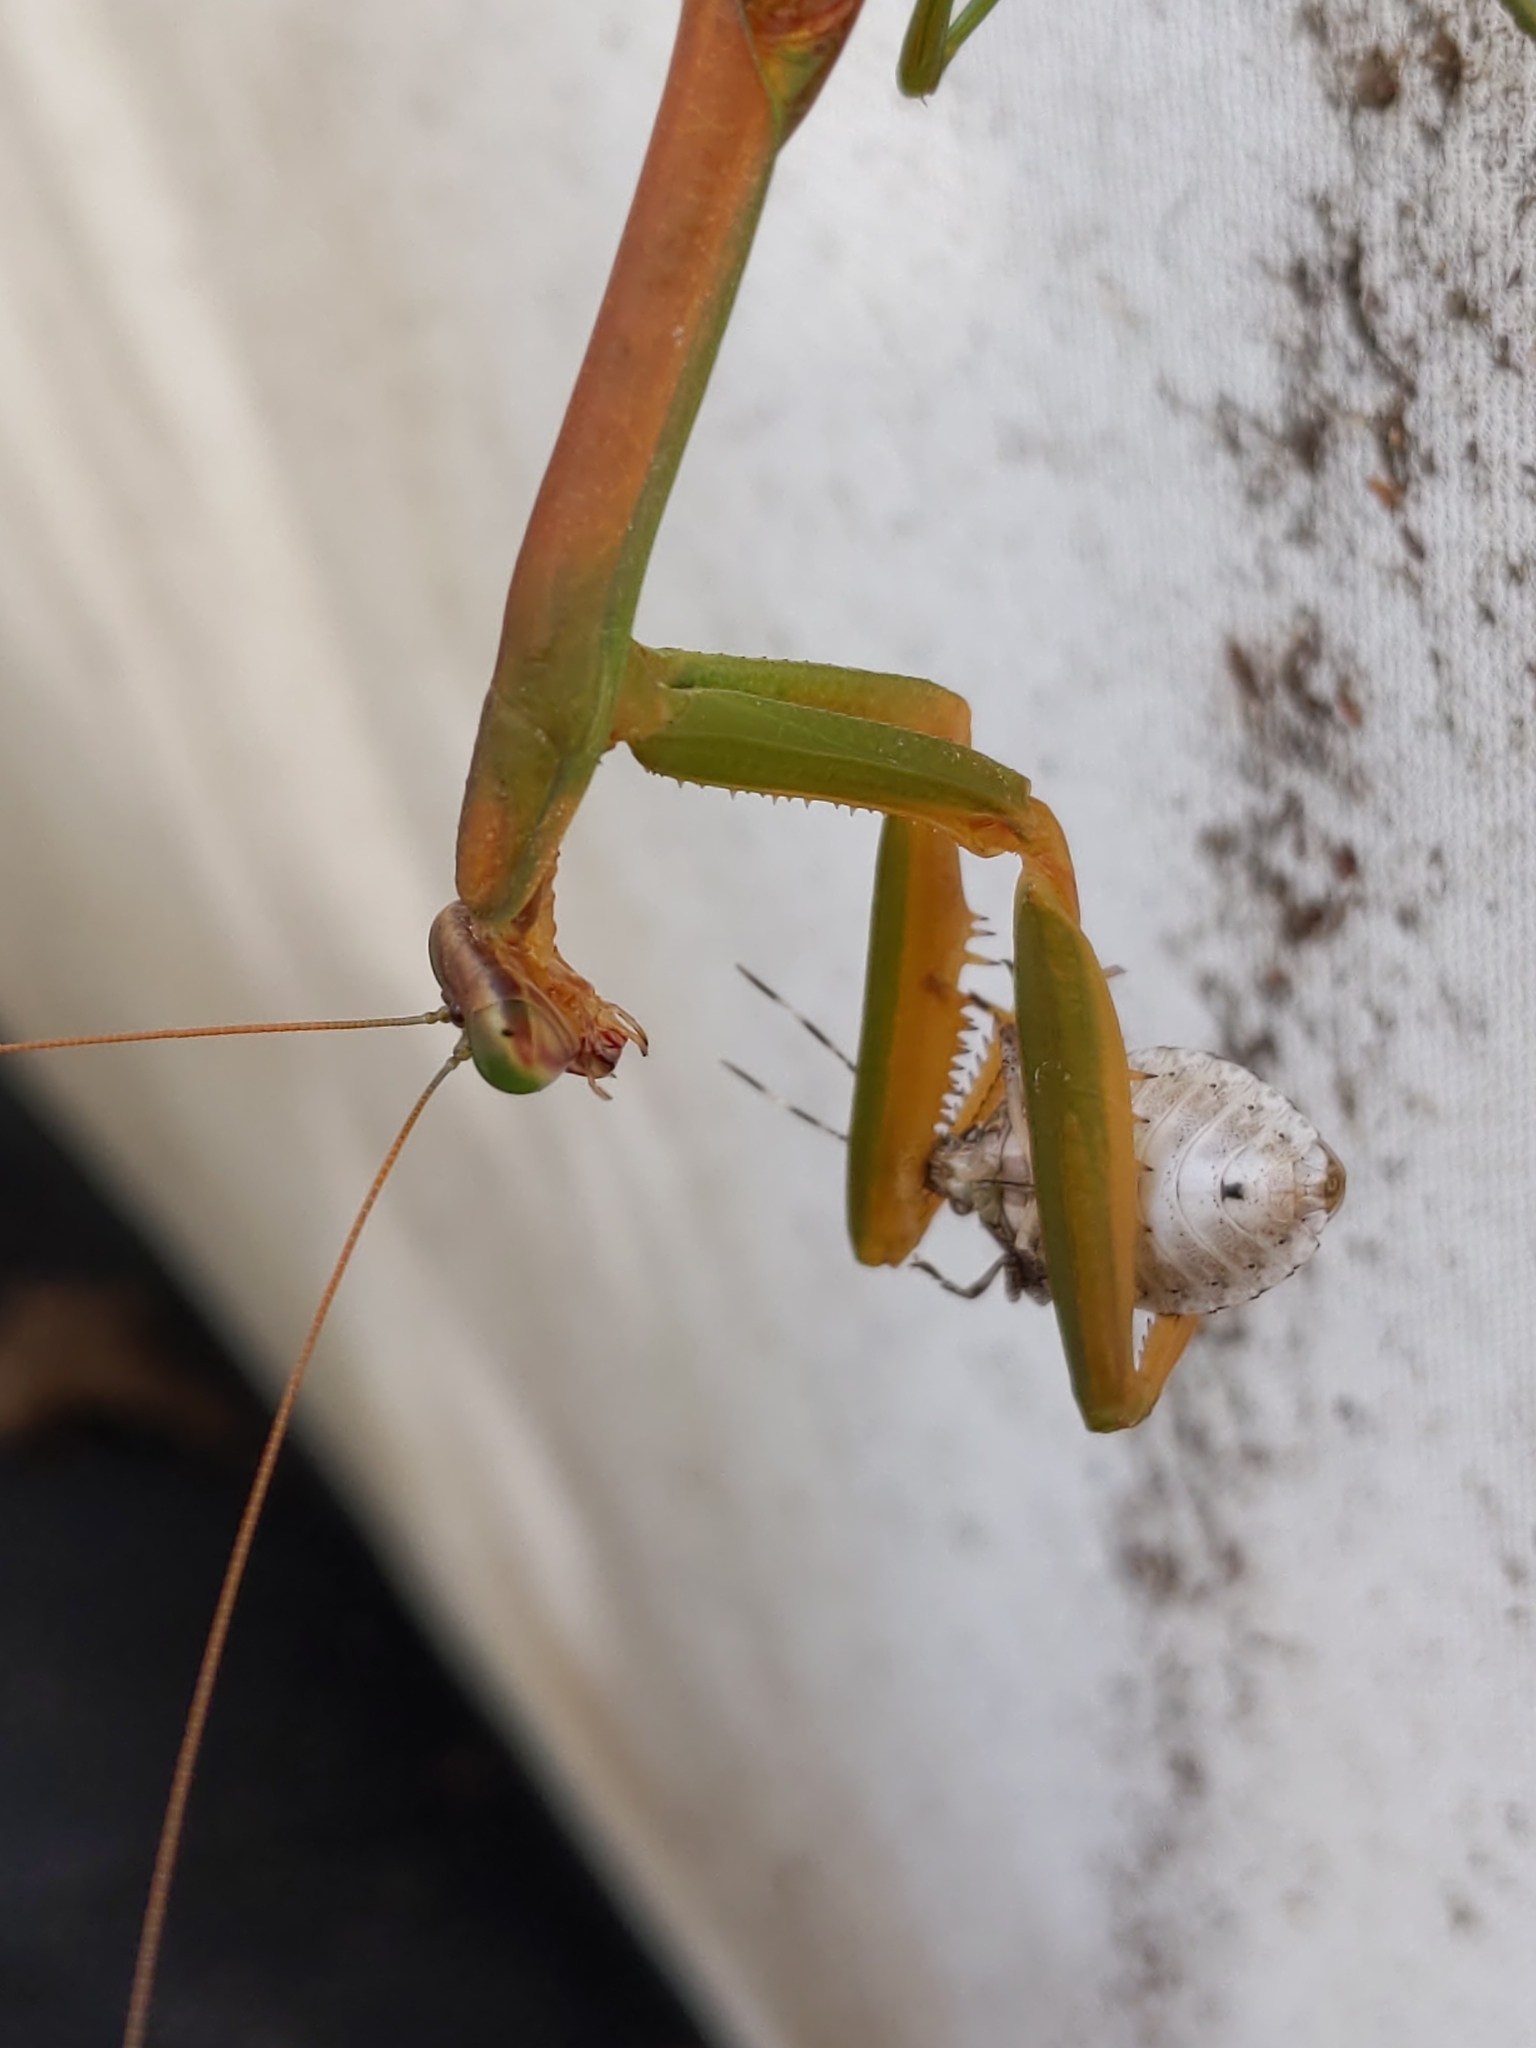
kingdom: Animalia
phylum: Arthropoda
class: Insecta
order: Hemiptera
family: Pentatomidae
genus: Halyomorpha
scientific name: Halyomorpha halys
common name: Brown marmorated stink bug
